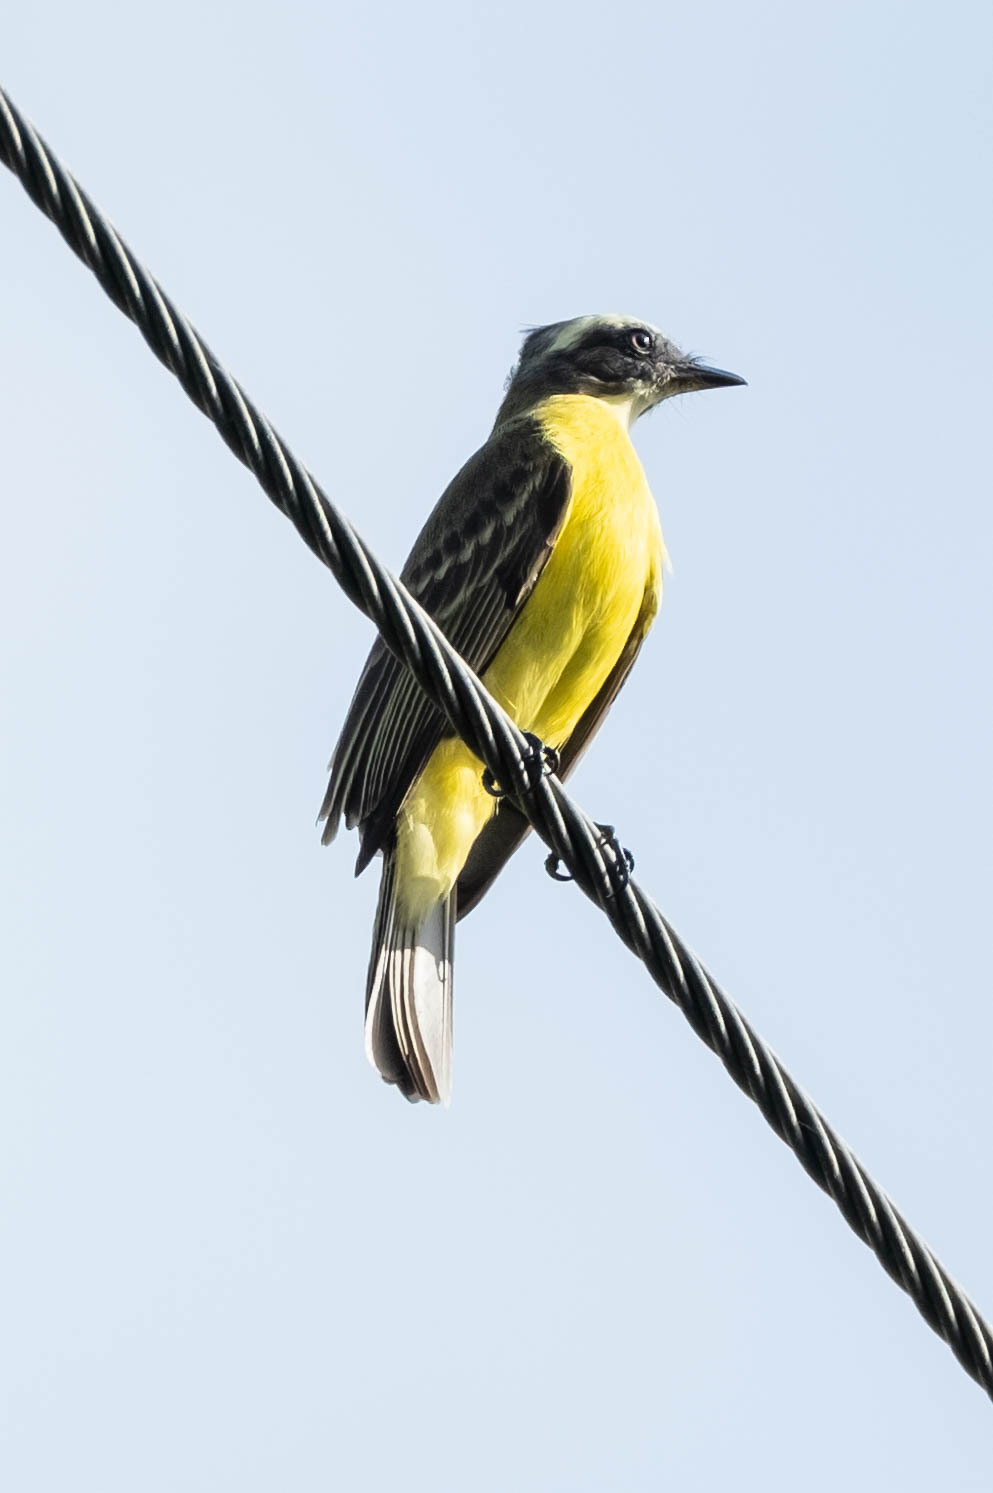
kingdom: Animalia
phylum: Chordata
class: Aves
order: Passeriformes
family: Tyrannidae
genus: Myiozetetes
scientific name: Myiozetetes similis
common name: Social flycatcher
